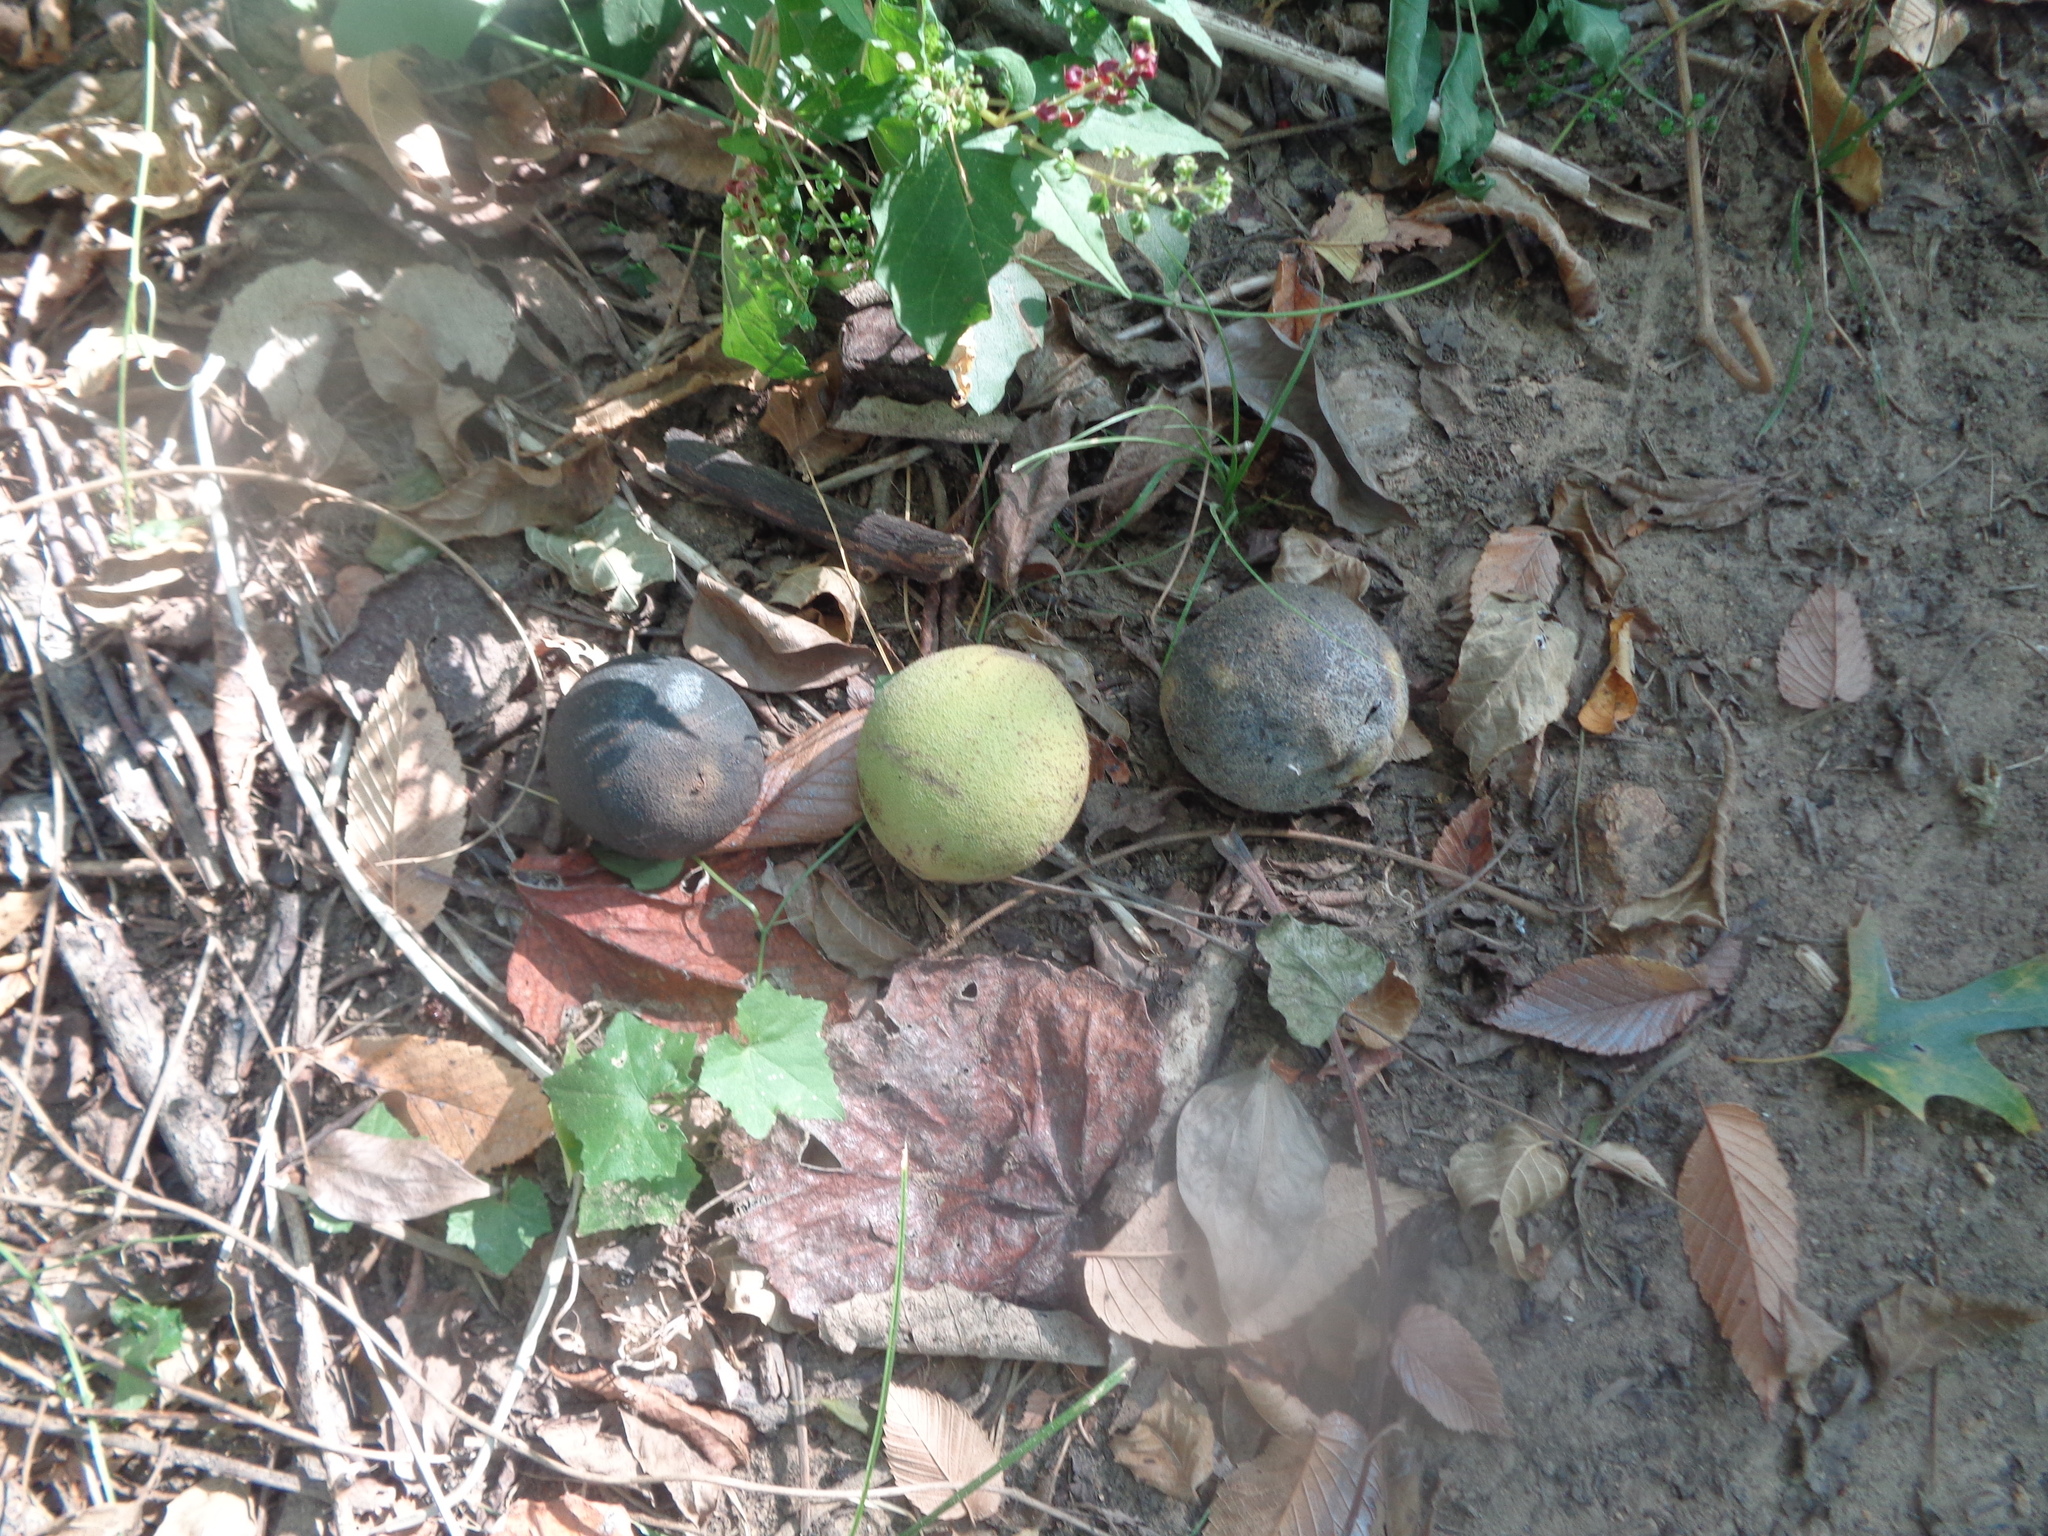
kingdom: Plantae
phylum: Tracheophyta
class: Magnoliopsida
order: Fagales
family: Juglandaceae
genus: Juglans
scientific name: Juglans nigra
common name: Black walnut
